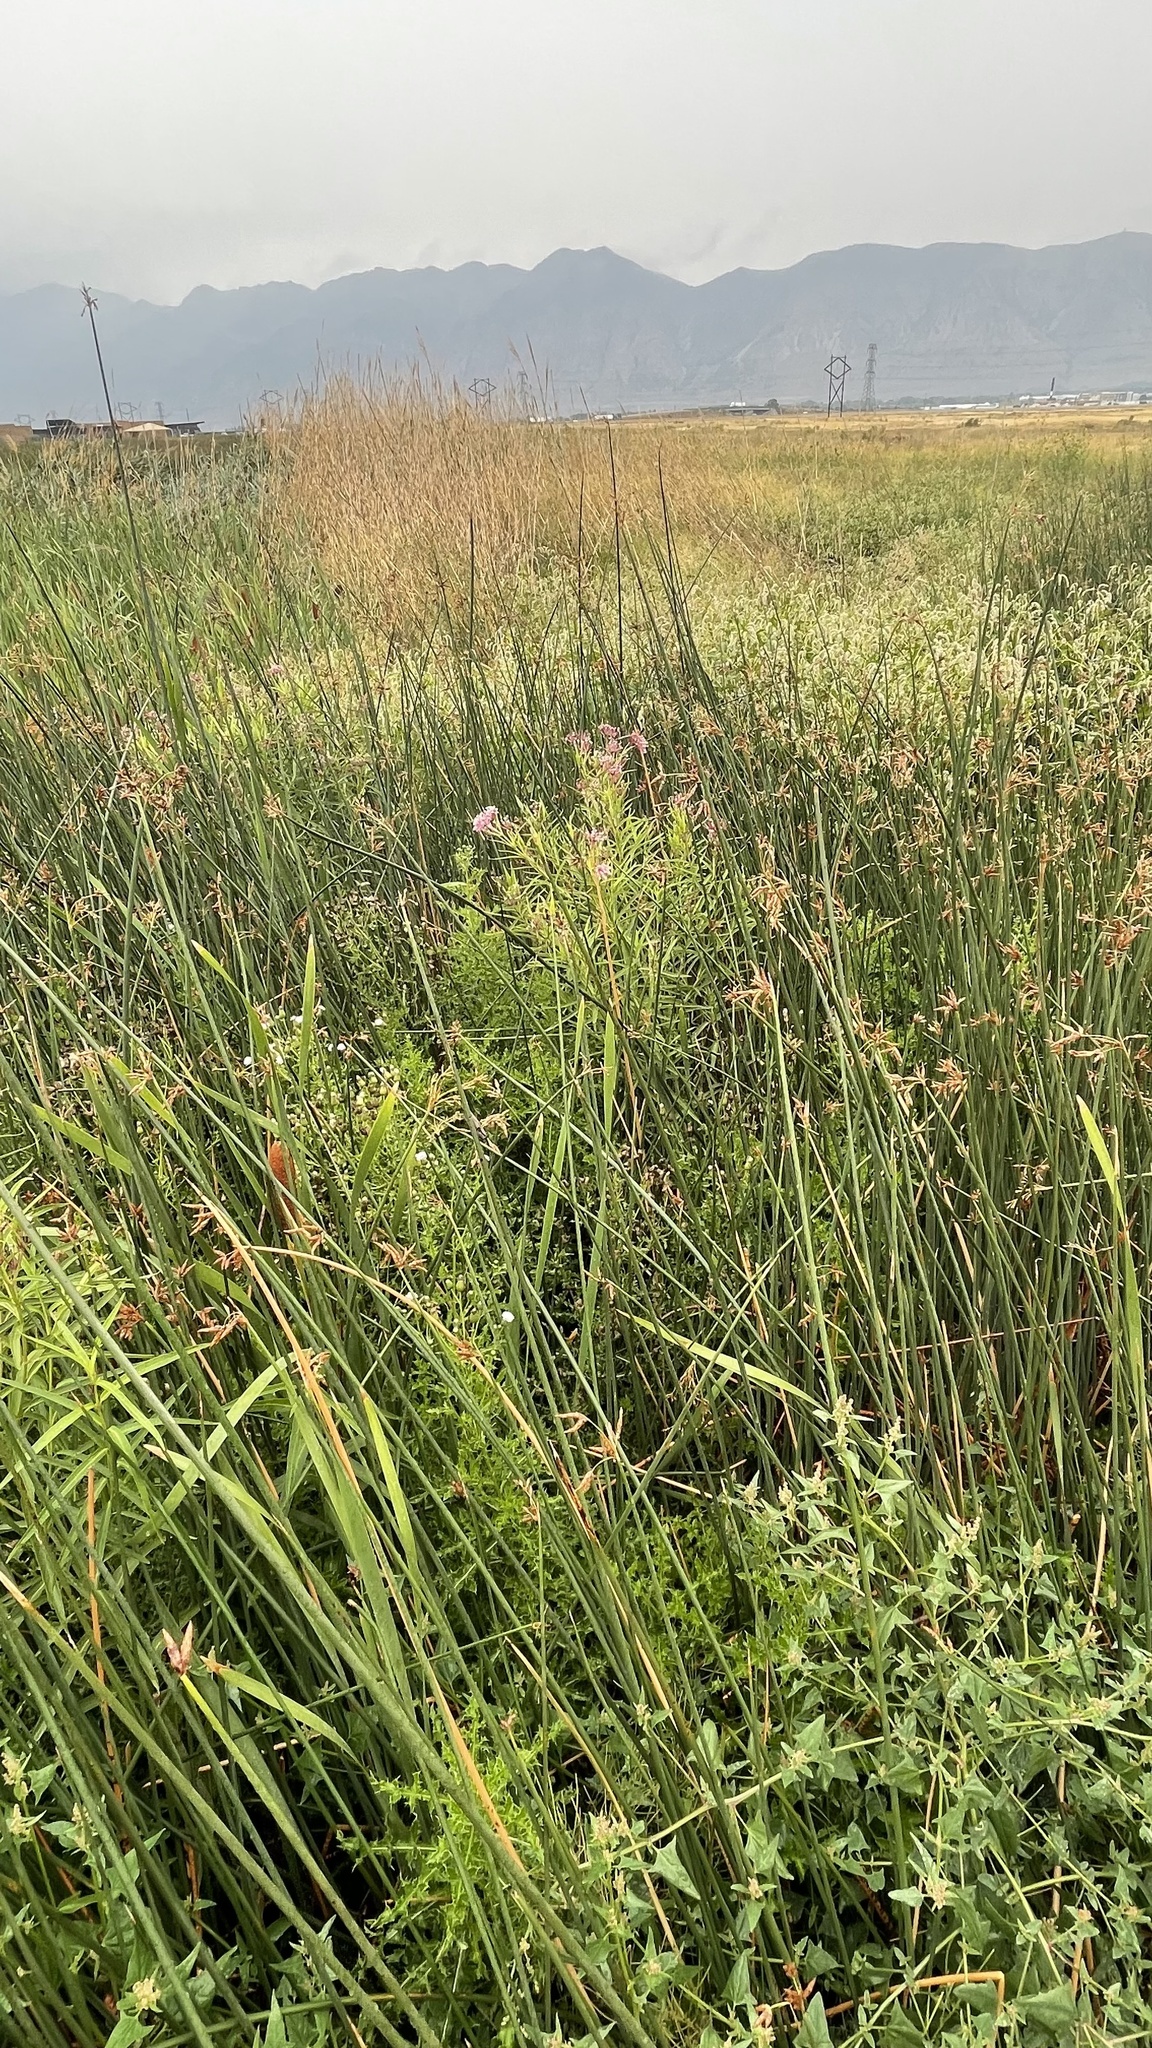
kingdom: Plantae
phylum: Tracheophyta
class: Magnoliopsida
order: Gentianales
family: Apocynaceae
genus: Asclepias
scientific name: Asclepias incarnata
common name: Swamp milkweed
